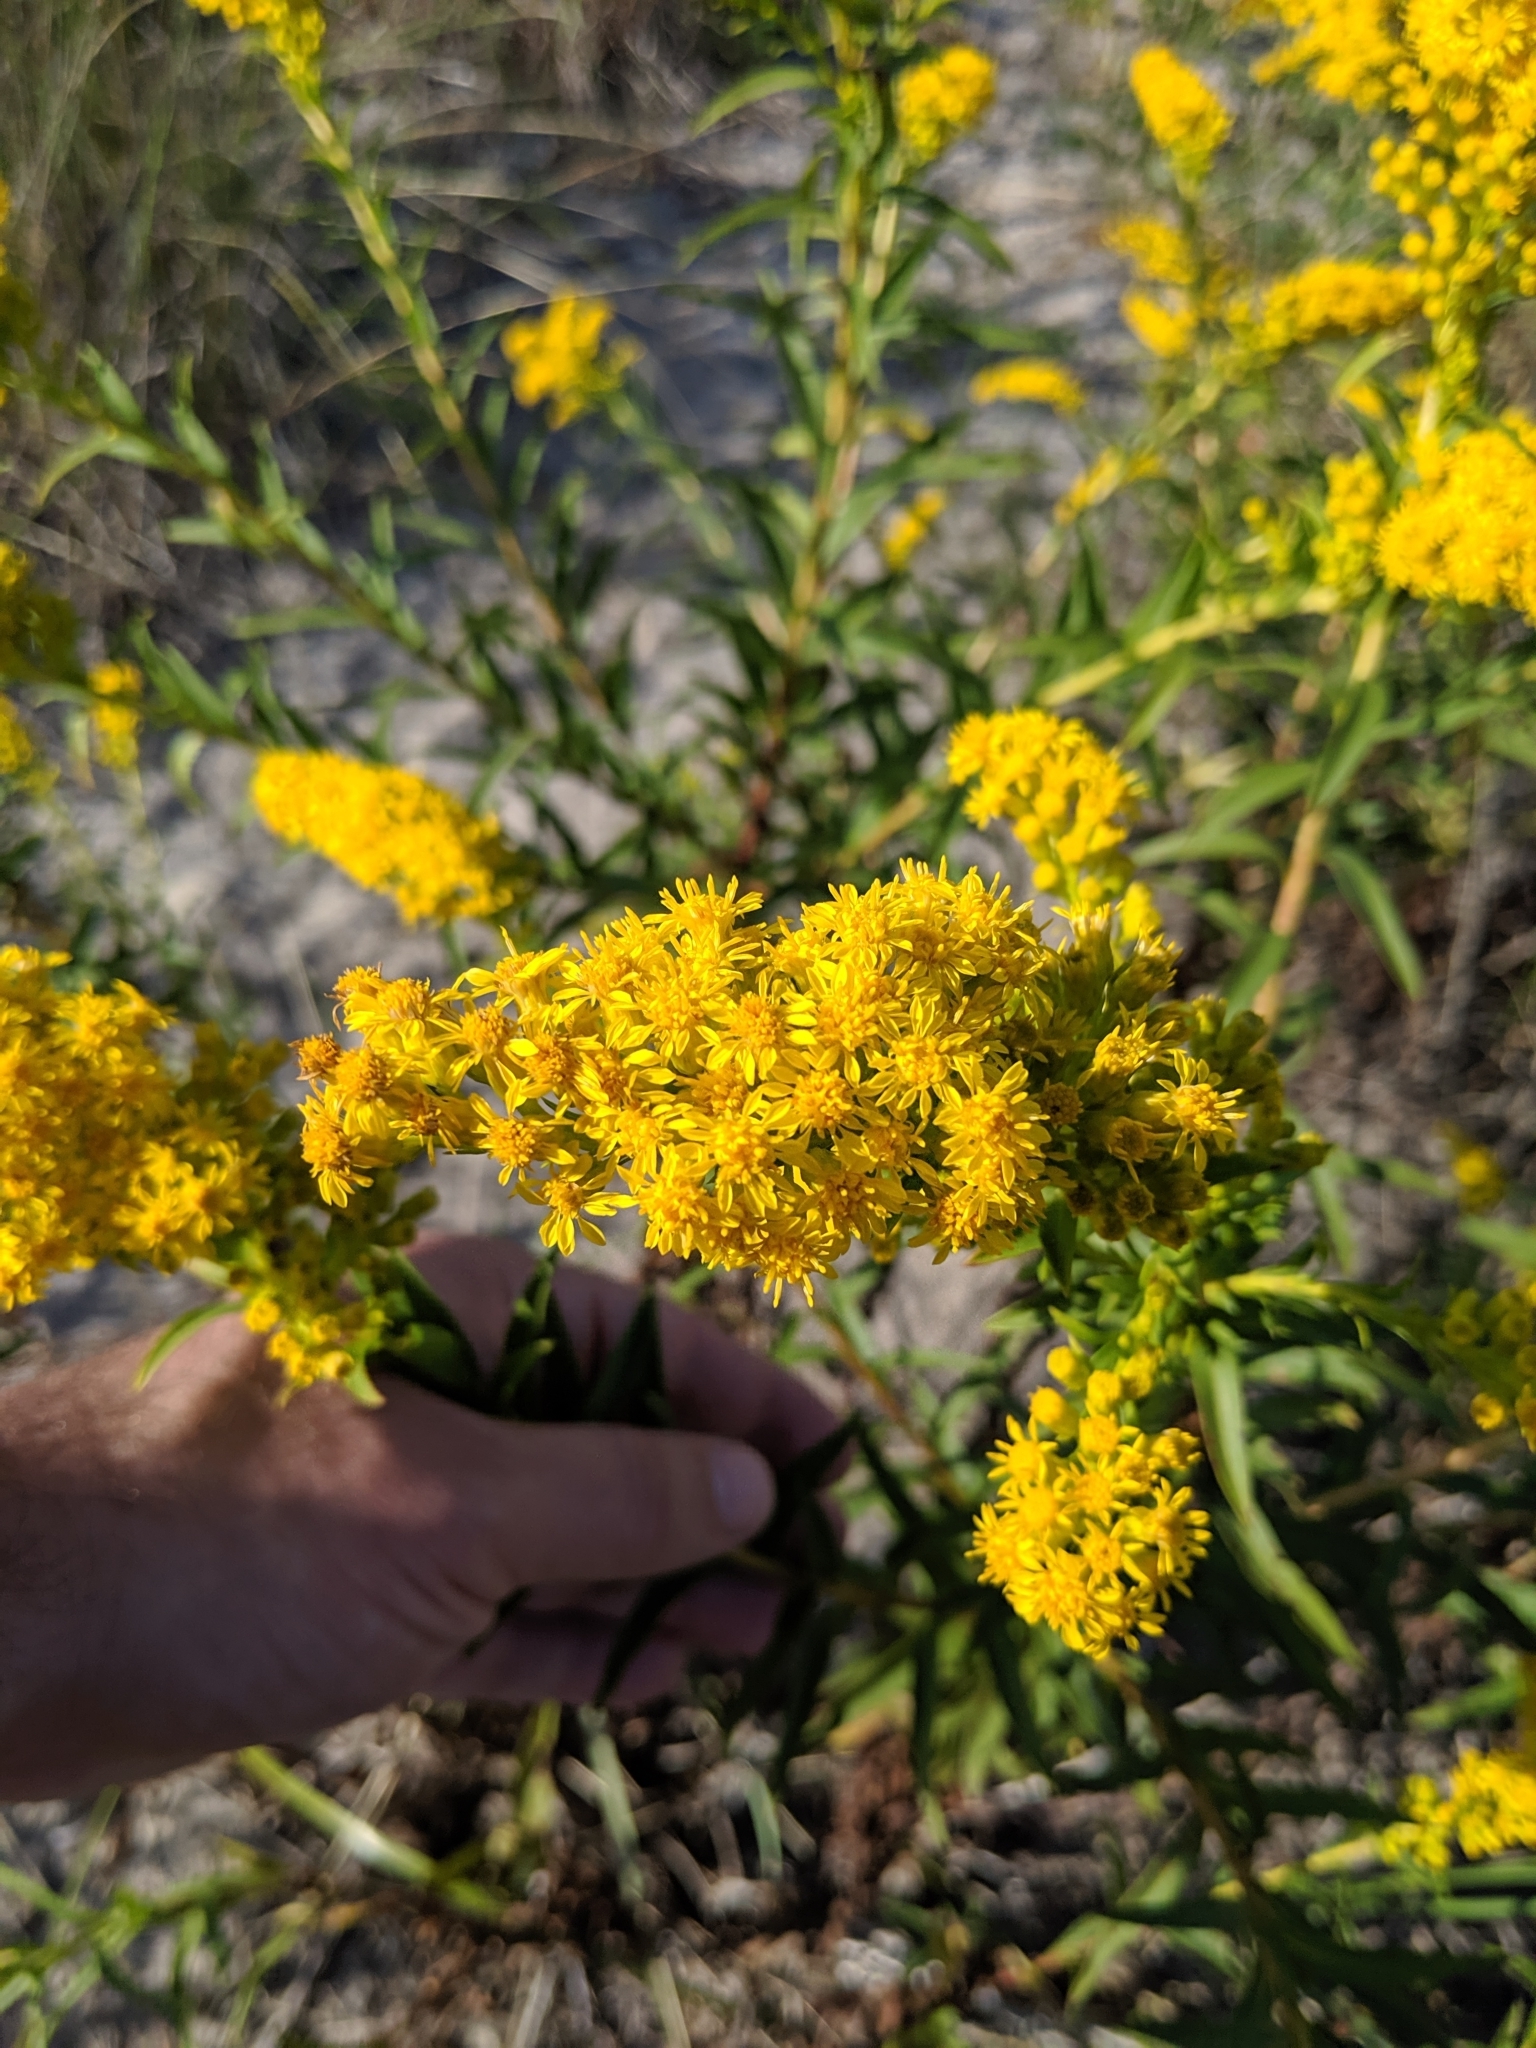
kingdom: Plantae
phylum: Tracheophyta
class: Magnoliopsida
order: Asterales
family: Asteraceae
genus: Solidago
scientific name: Solidago sempervirens
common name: Salt-marsh goldenrod
